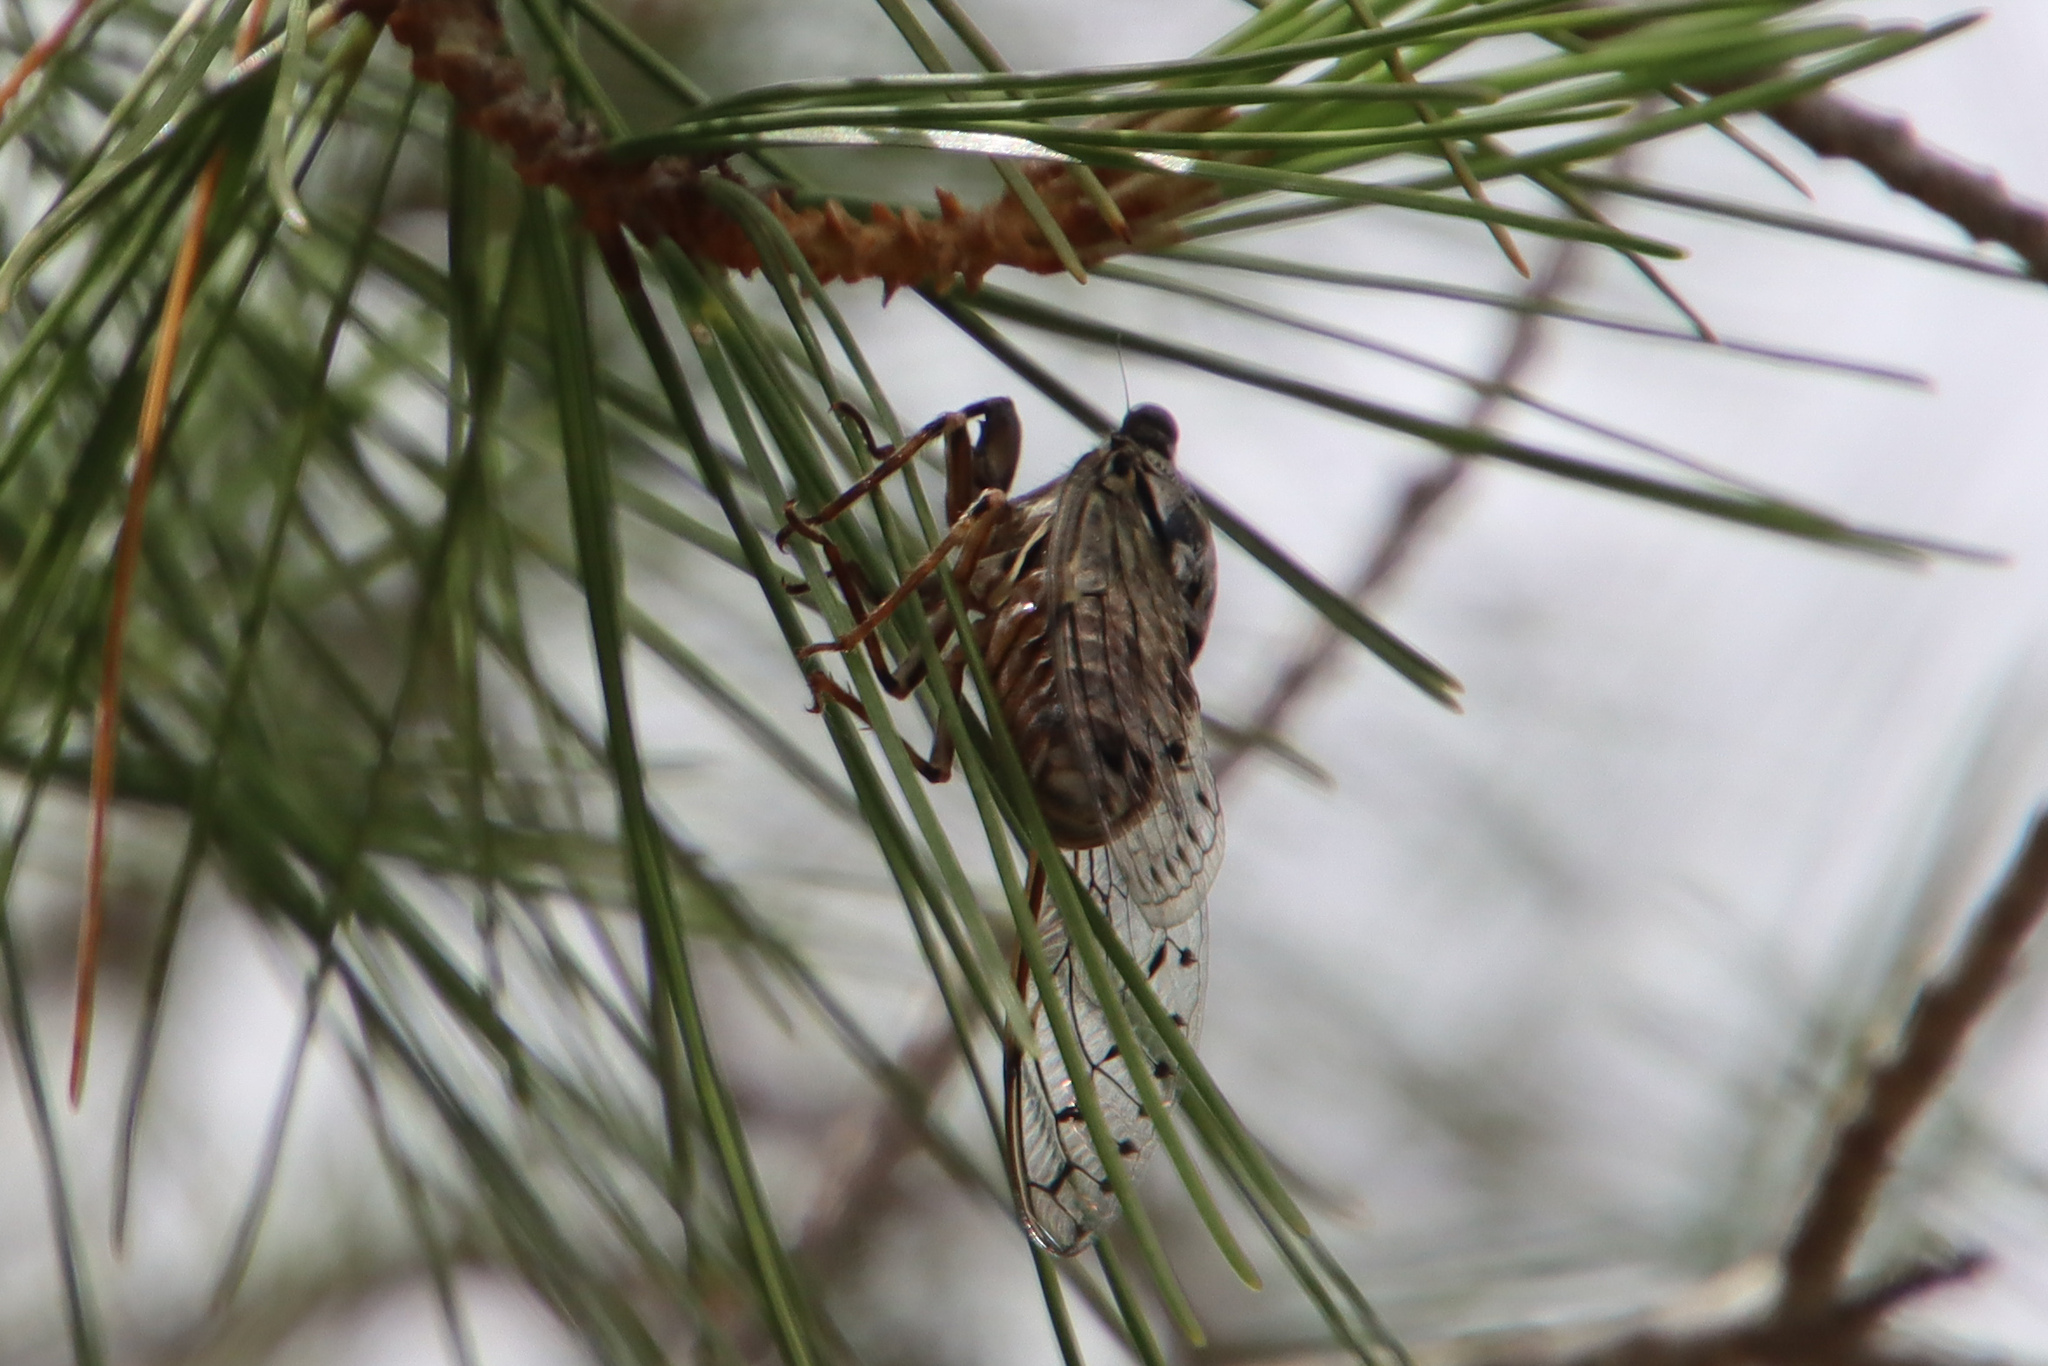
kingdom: Animalia
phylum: Arthropoda
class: Insecta
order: Hemiptera
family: Cicadidae
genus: Cicada
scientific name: Cicada orni
